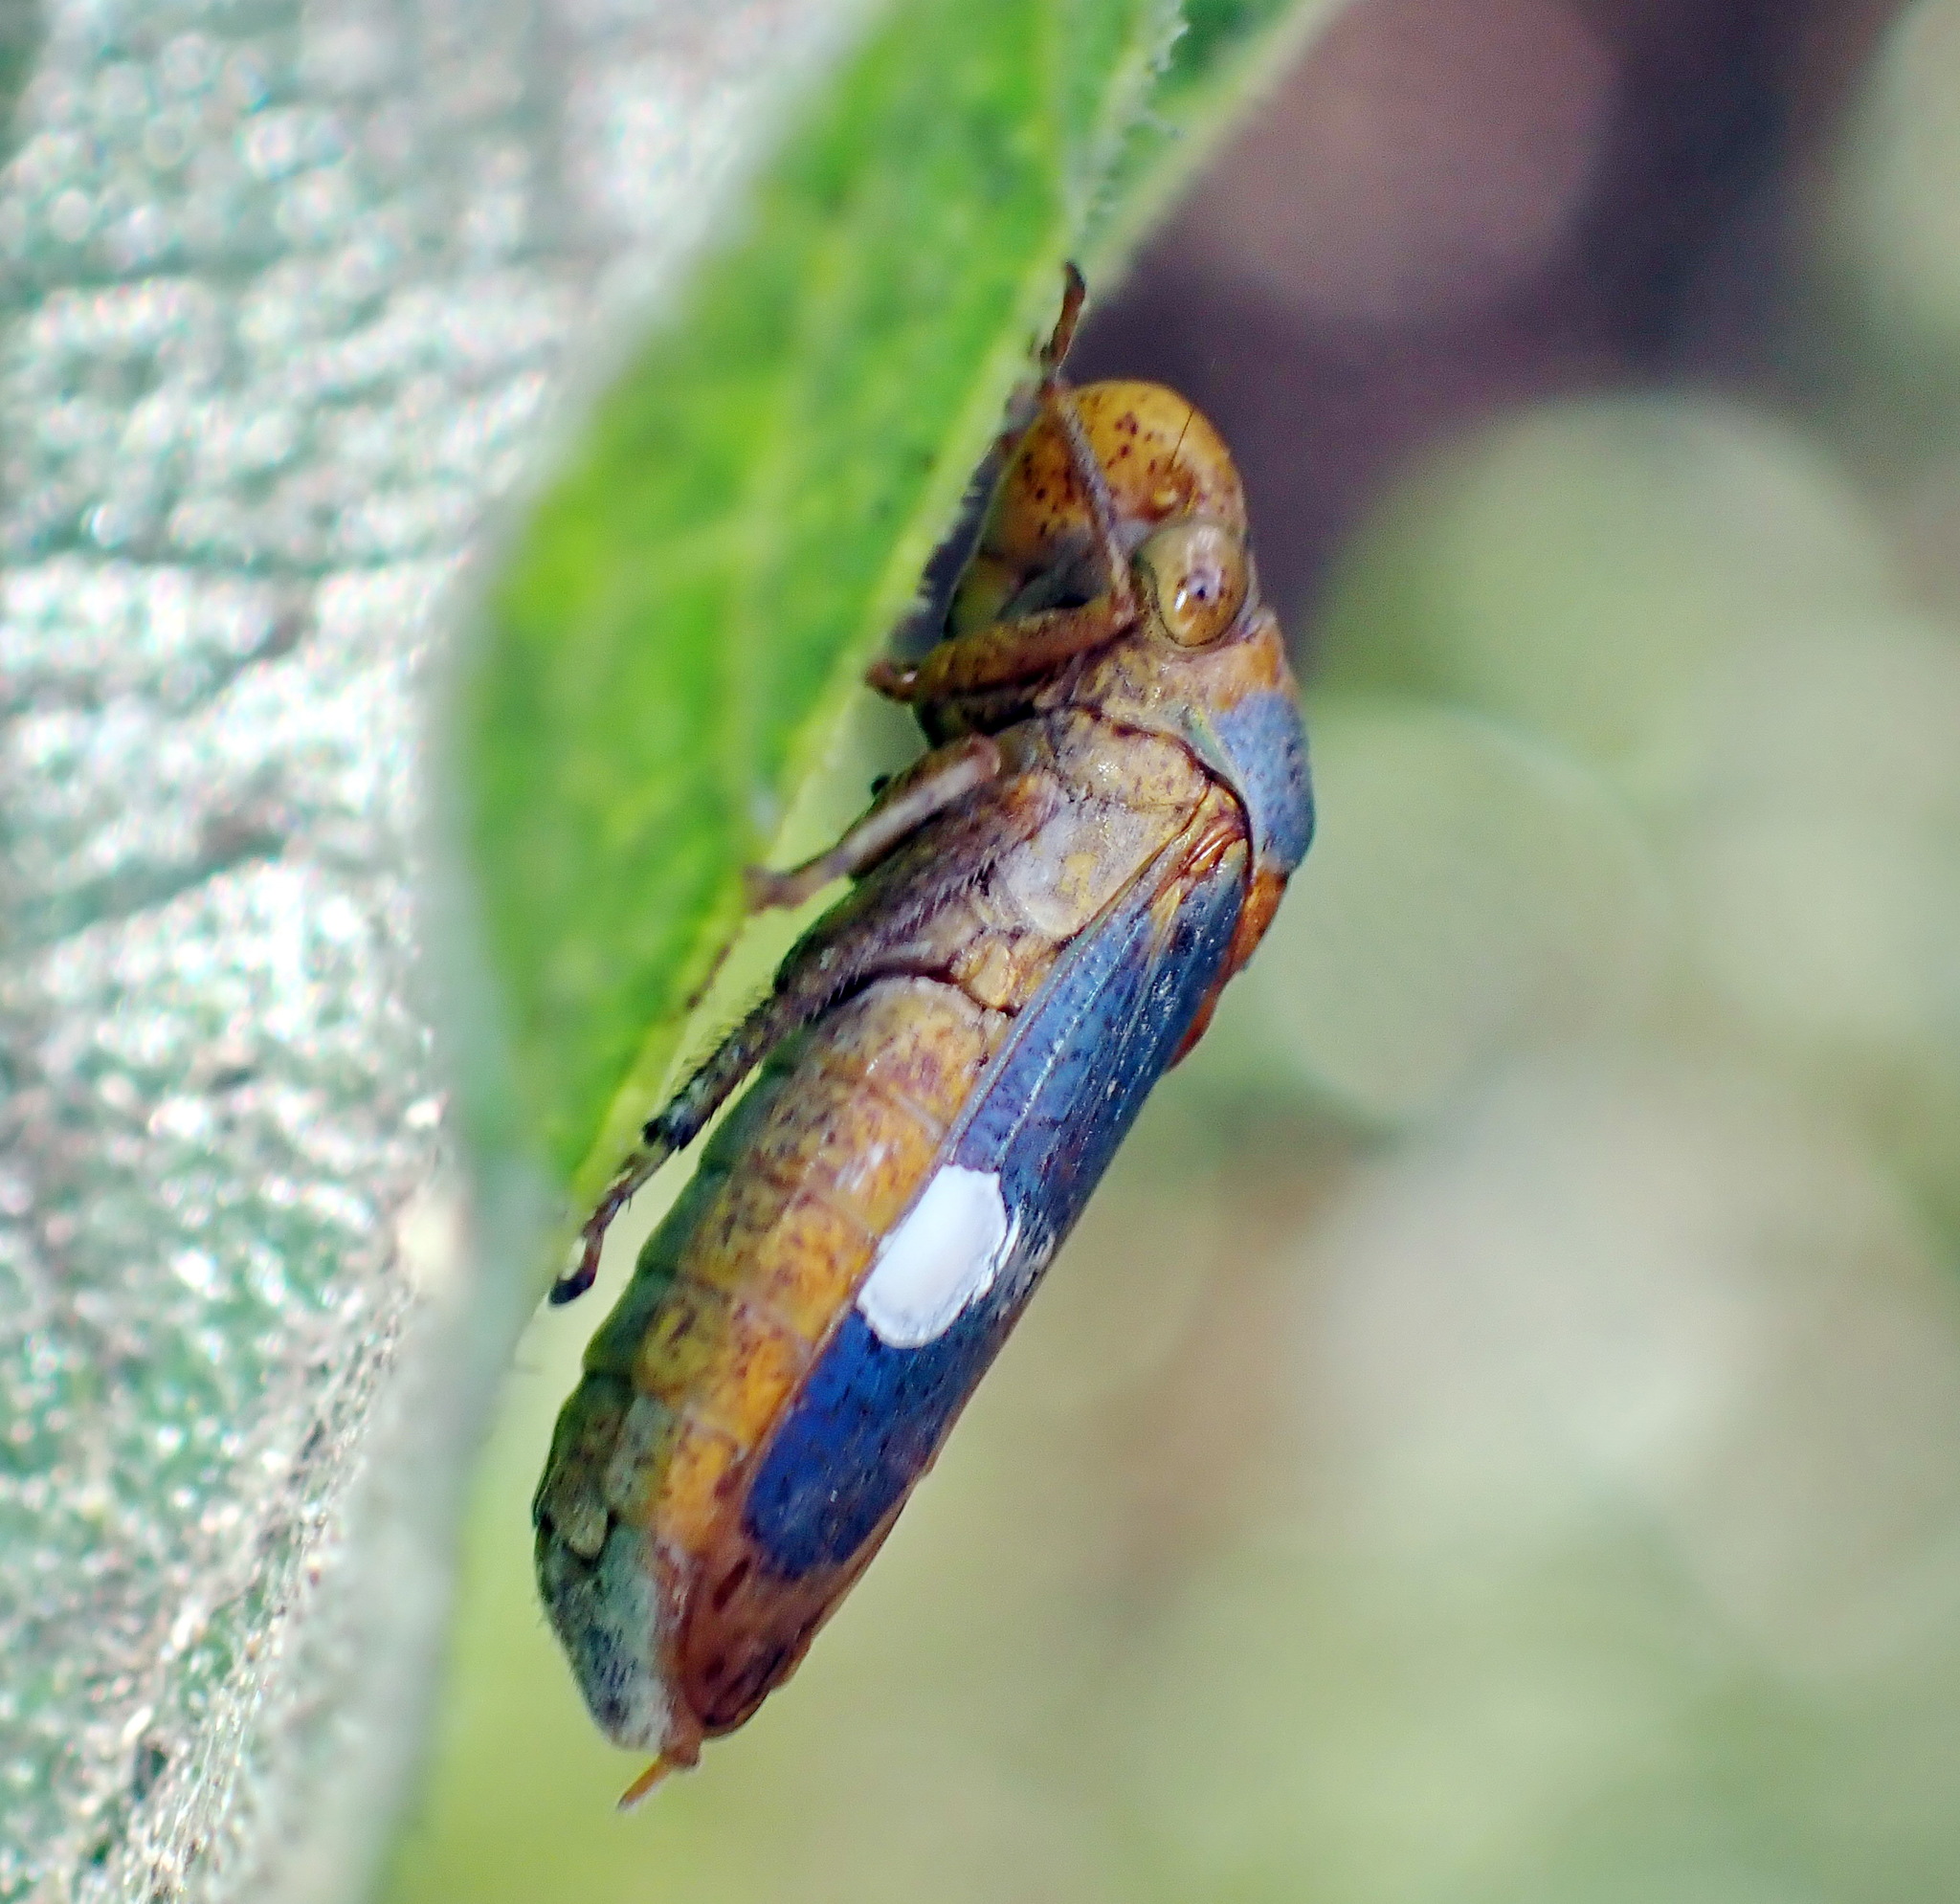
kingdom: Animalia
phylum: Arthropoda
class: Insecta
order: Hemiptera
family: Cicadellidae
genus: Oncometopia
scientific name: Oncometopia hamiltoni
